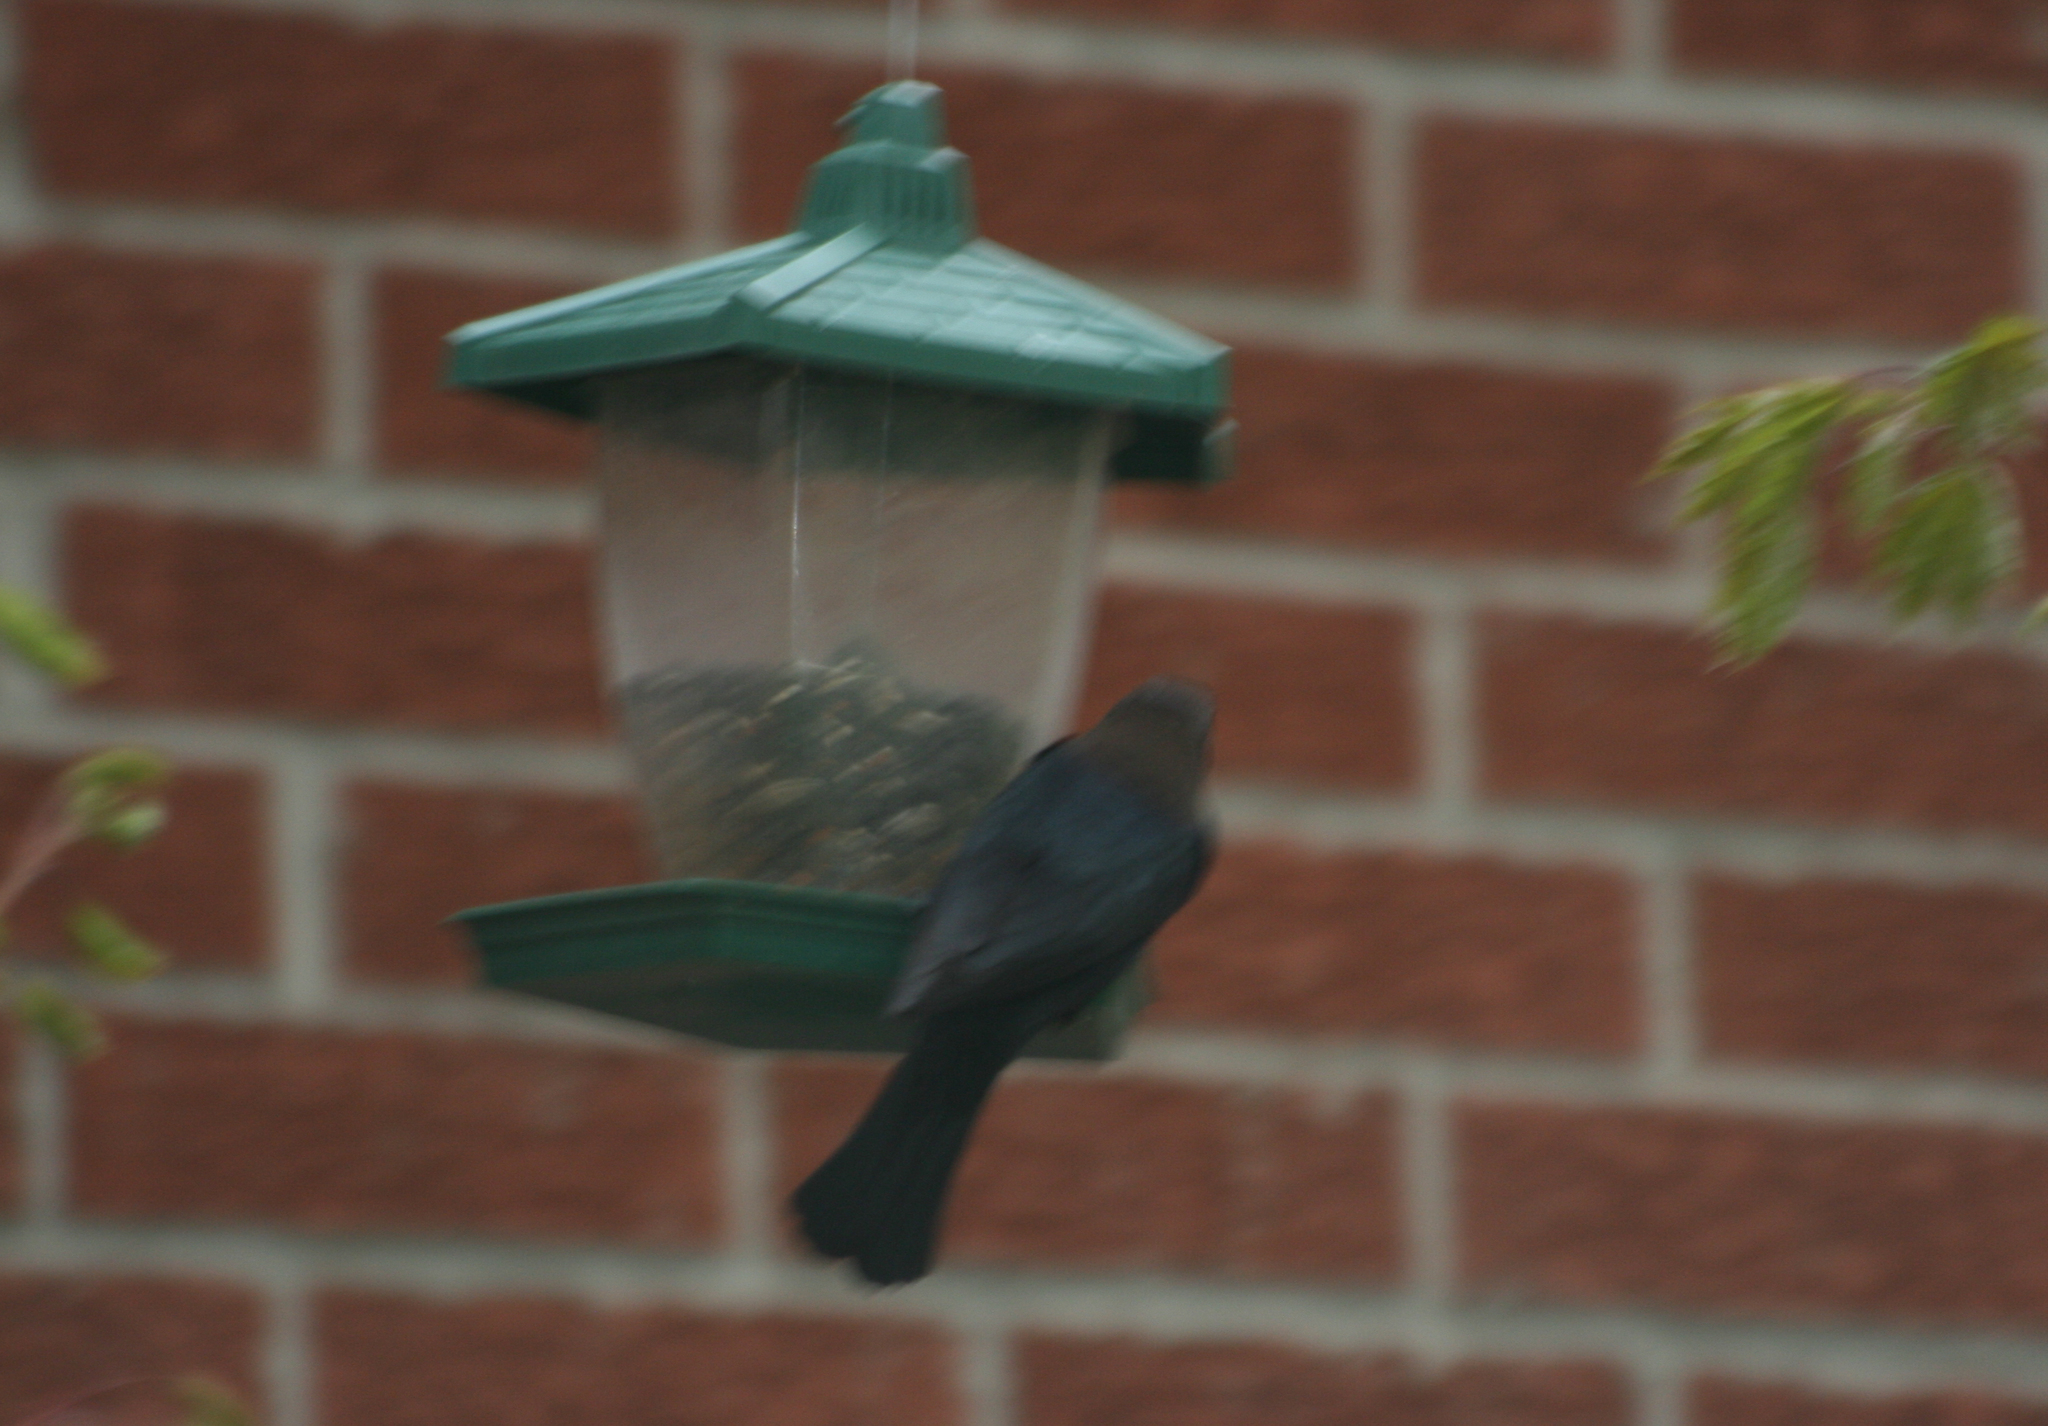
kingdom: Animalia
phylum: Chordata
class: Aves
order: Passeriformes
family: Icteridae
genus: Molothrus
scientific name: Molothrus ater
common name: Brown-headed cowbird
